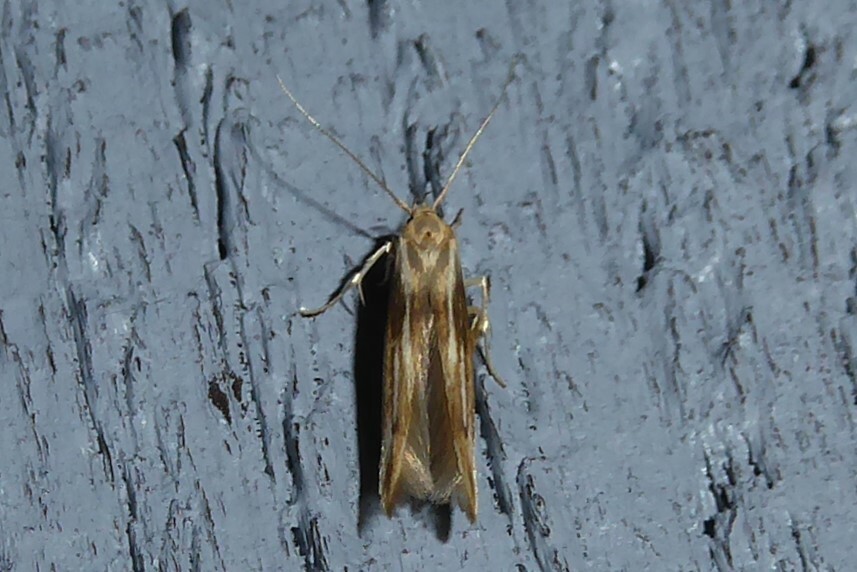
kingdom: Animalia
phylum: Arthropoda
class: Insecta
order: Lepidoptera
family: Stathmopodidae
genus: Stathmopoda
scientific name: Stathmopoda aposema
